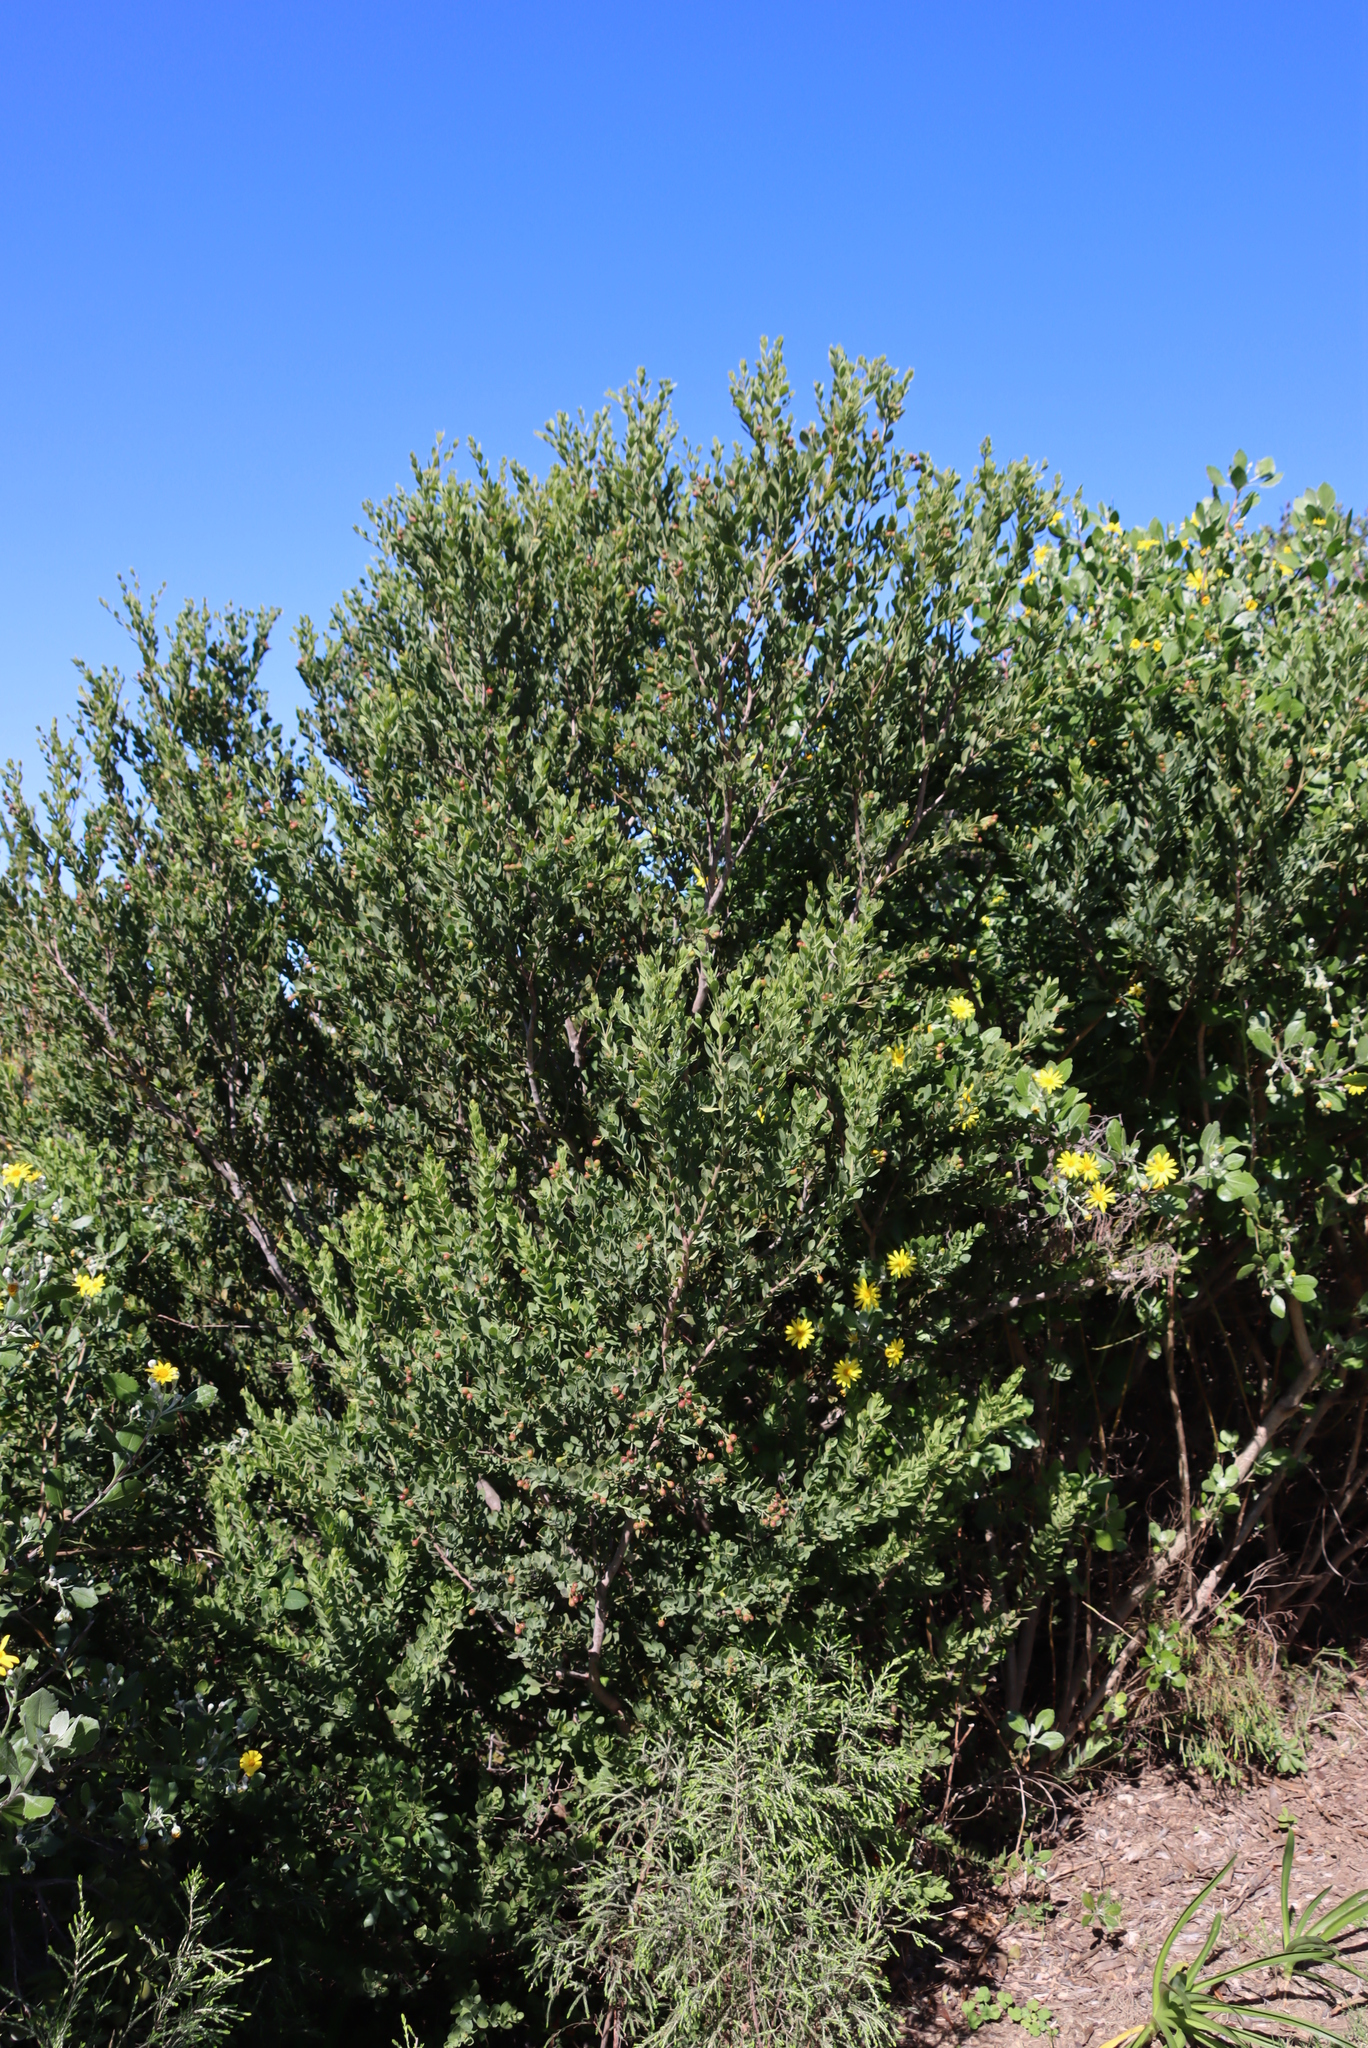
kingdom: Plantae
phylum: Tracheophyta
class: Magnoliopsida
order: Santalales
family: Santalaceae
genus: Osyris
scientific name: Osyris compressa
